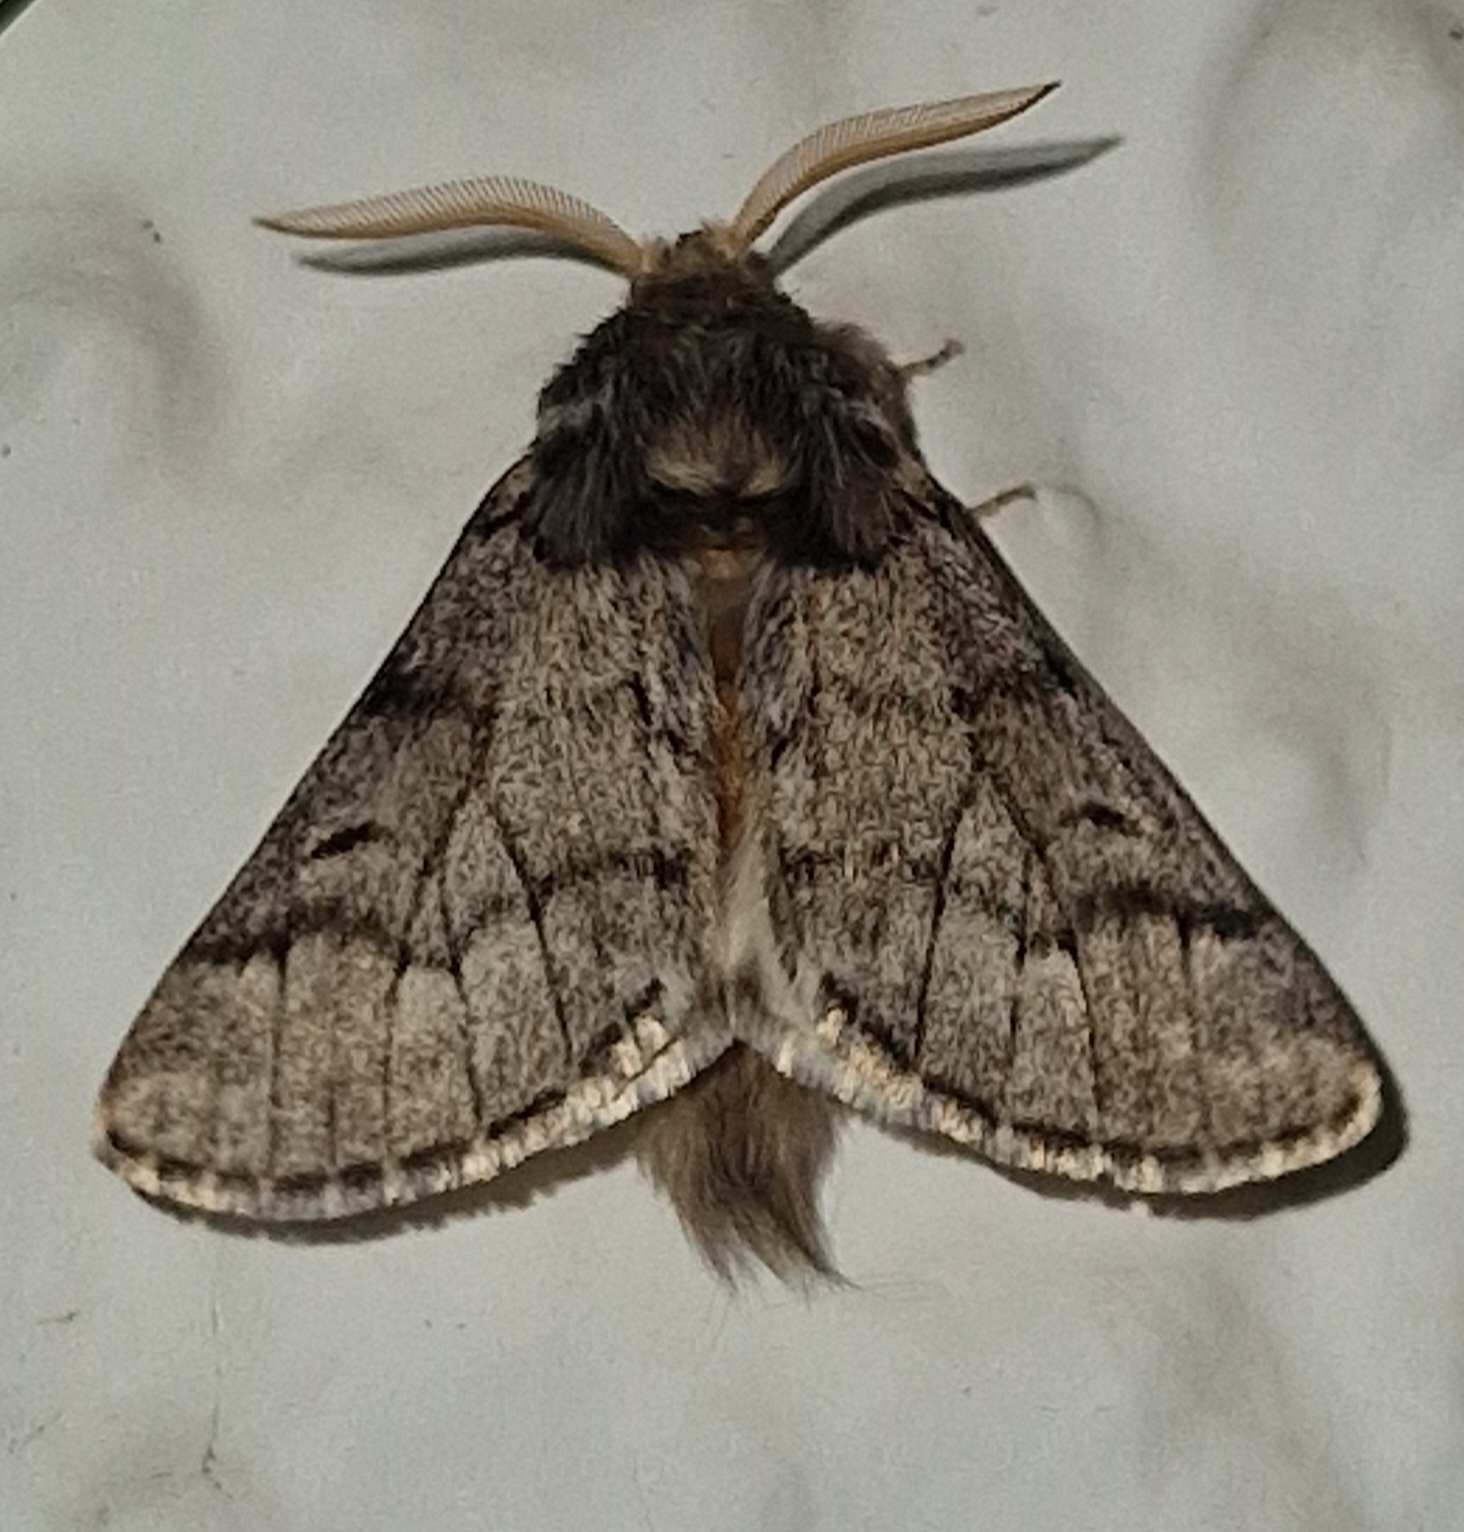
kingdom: Animalia
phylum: Arthropoda
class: Insecta
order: Lepidoptera
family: Notodontidae
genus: Thaumetopoea
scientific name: Thaumetopoea pityocampa
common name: Pine processionary
